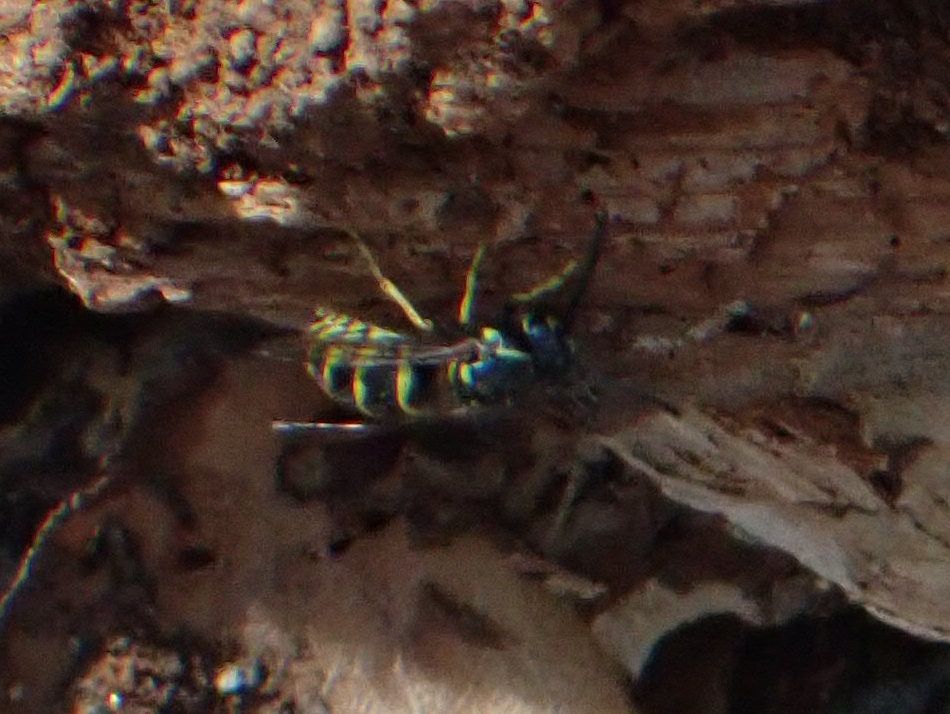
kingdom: Animalia
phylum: Arthropoda
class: Insecta
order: Hymenoptera
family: Vespidae
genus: Vespula
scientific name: Vespula alascensis
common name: Alaska yellowjacket
